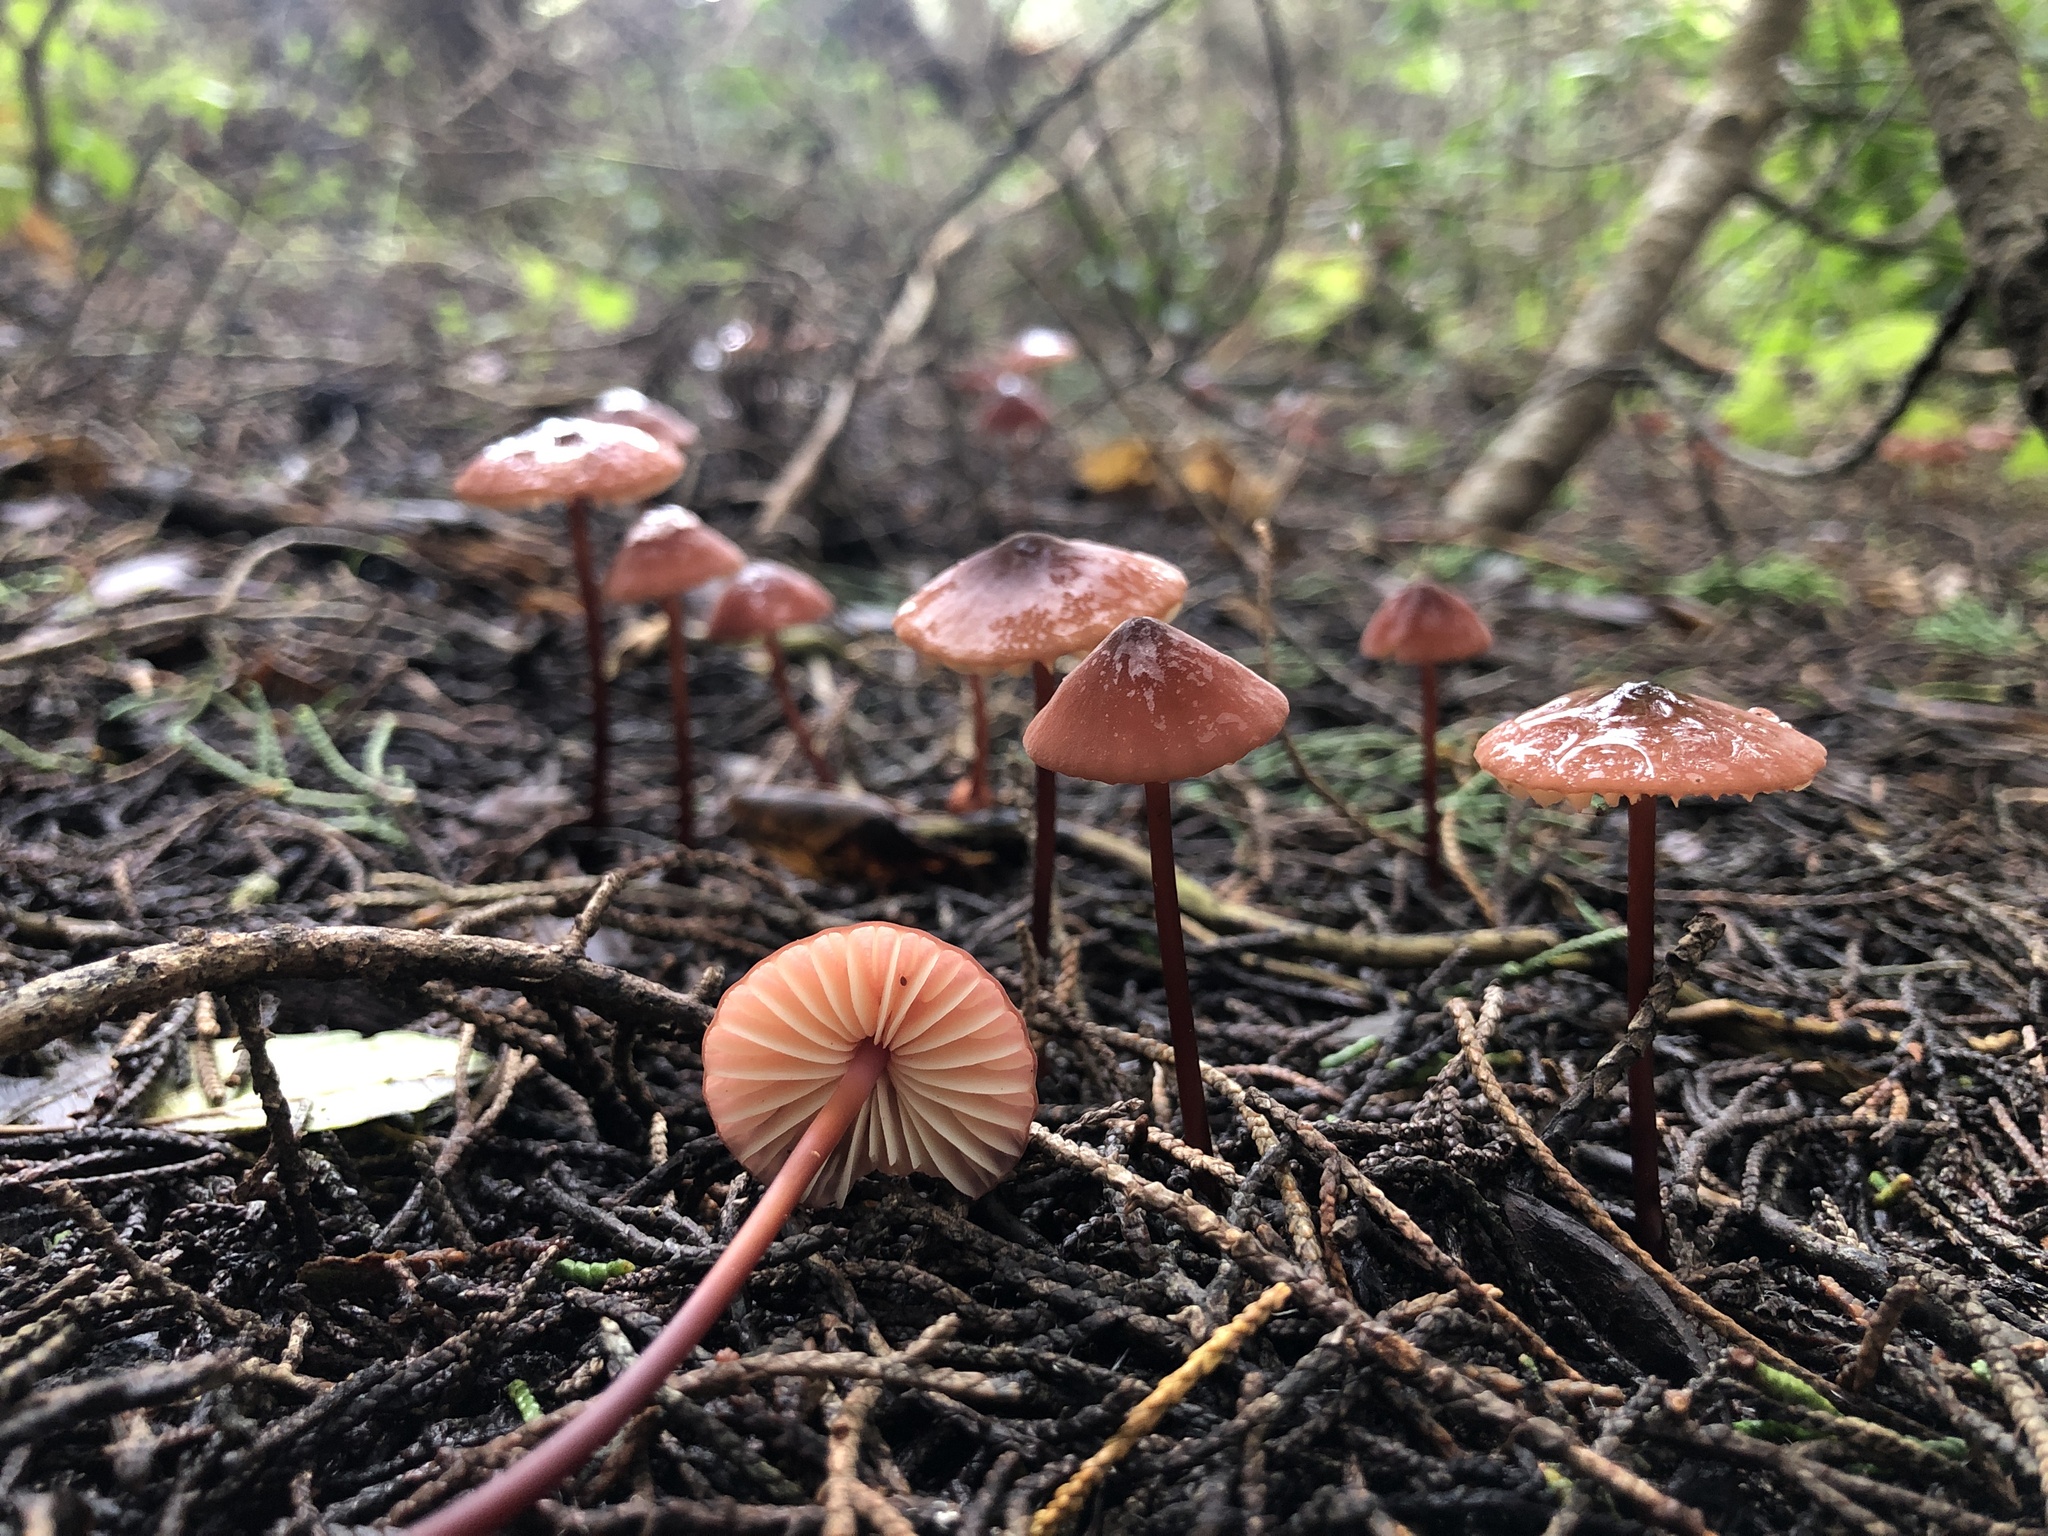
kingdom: Fungi
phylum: Basidiomycota
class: Agaricomycetes
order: Agaricales
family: Marasmiaceae
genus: Marasmius
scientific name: Marasmius plicatulus
